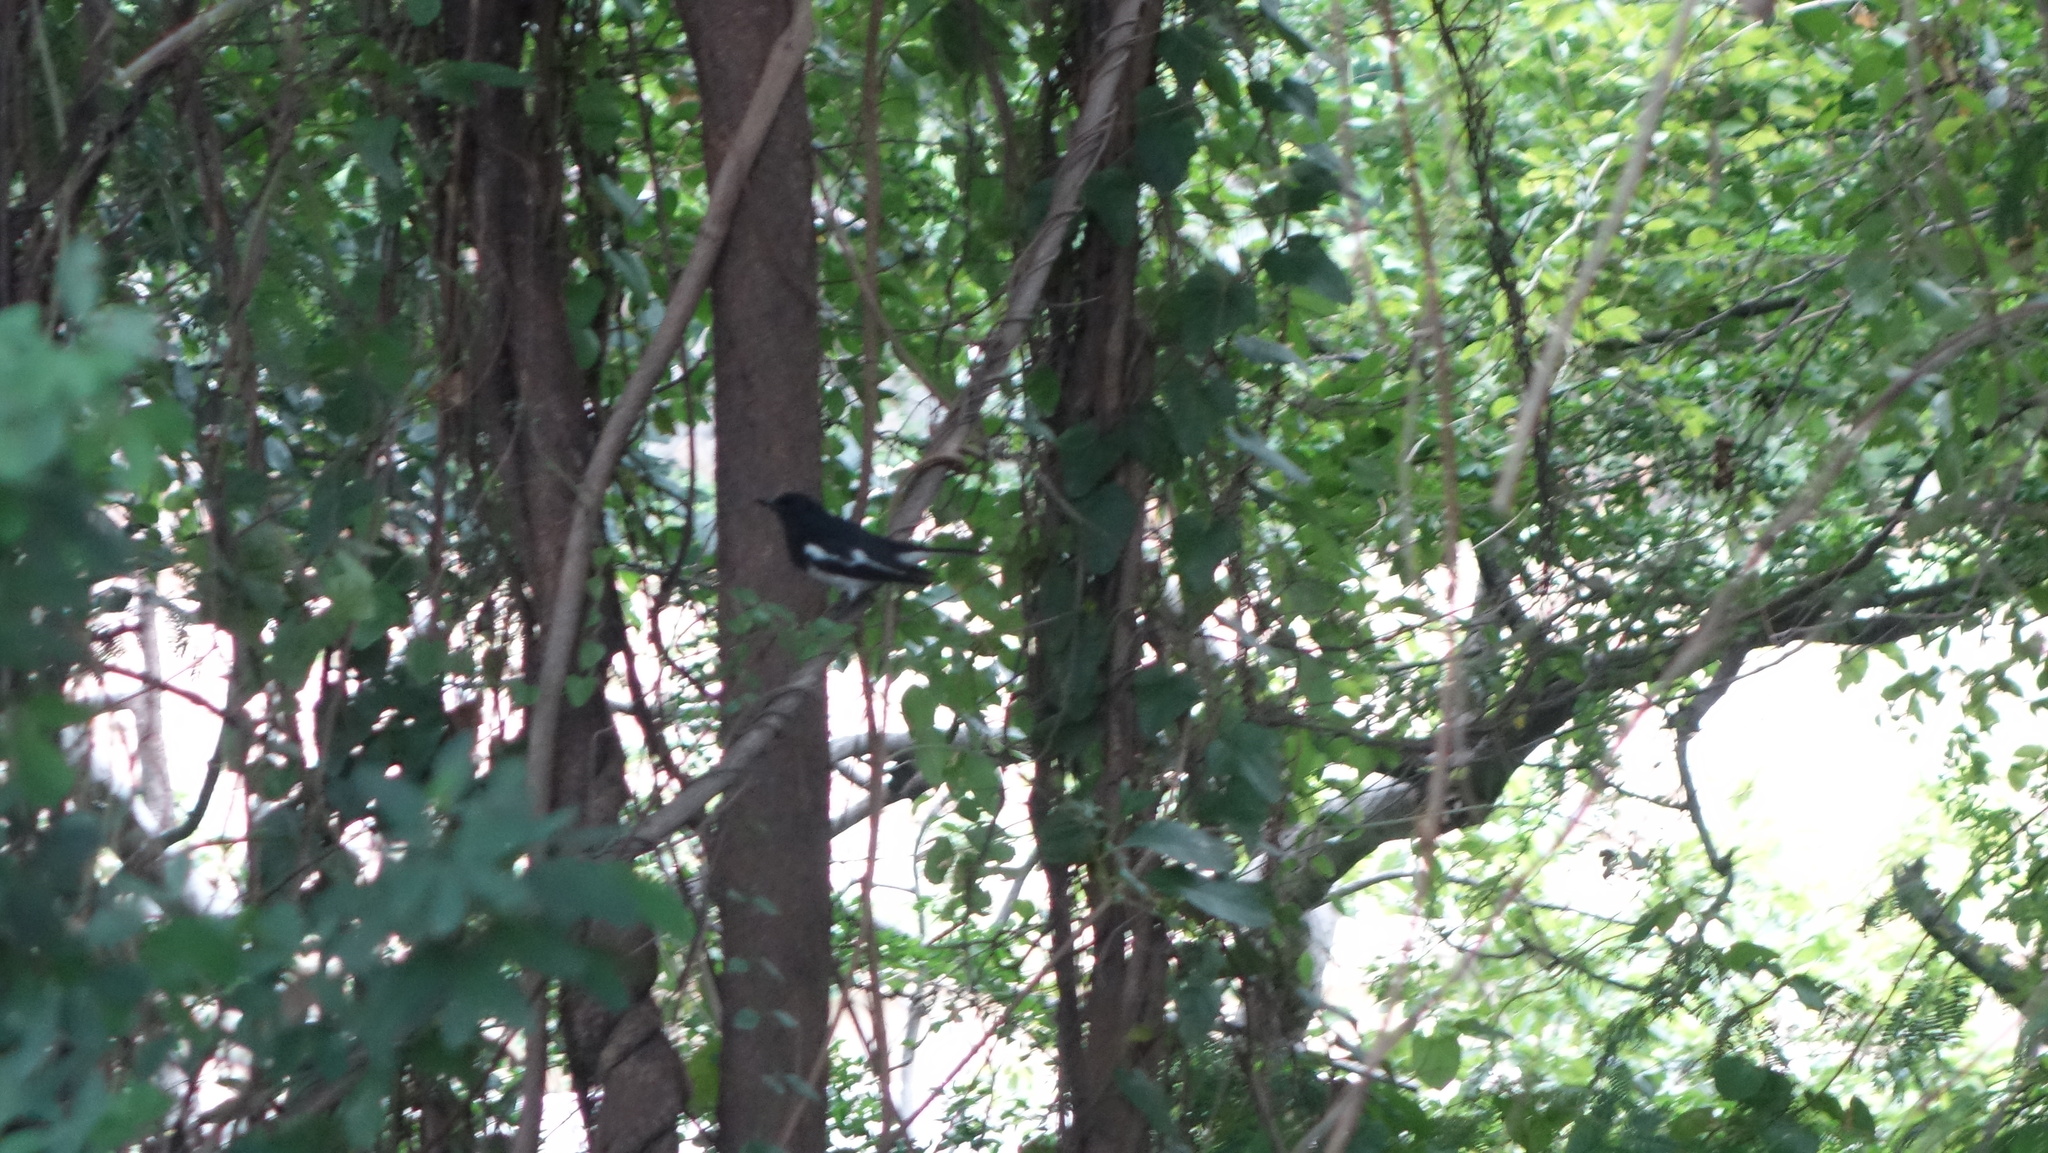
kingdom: Animalia
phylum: Chordata
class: Aves
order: Passeriformes
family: Muscicapidae
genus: Copsychus
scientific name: Copsychus saularis
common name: Oriental magpie-robin
